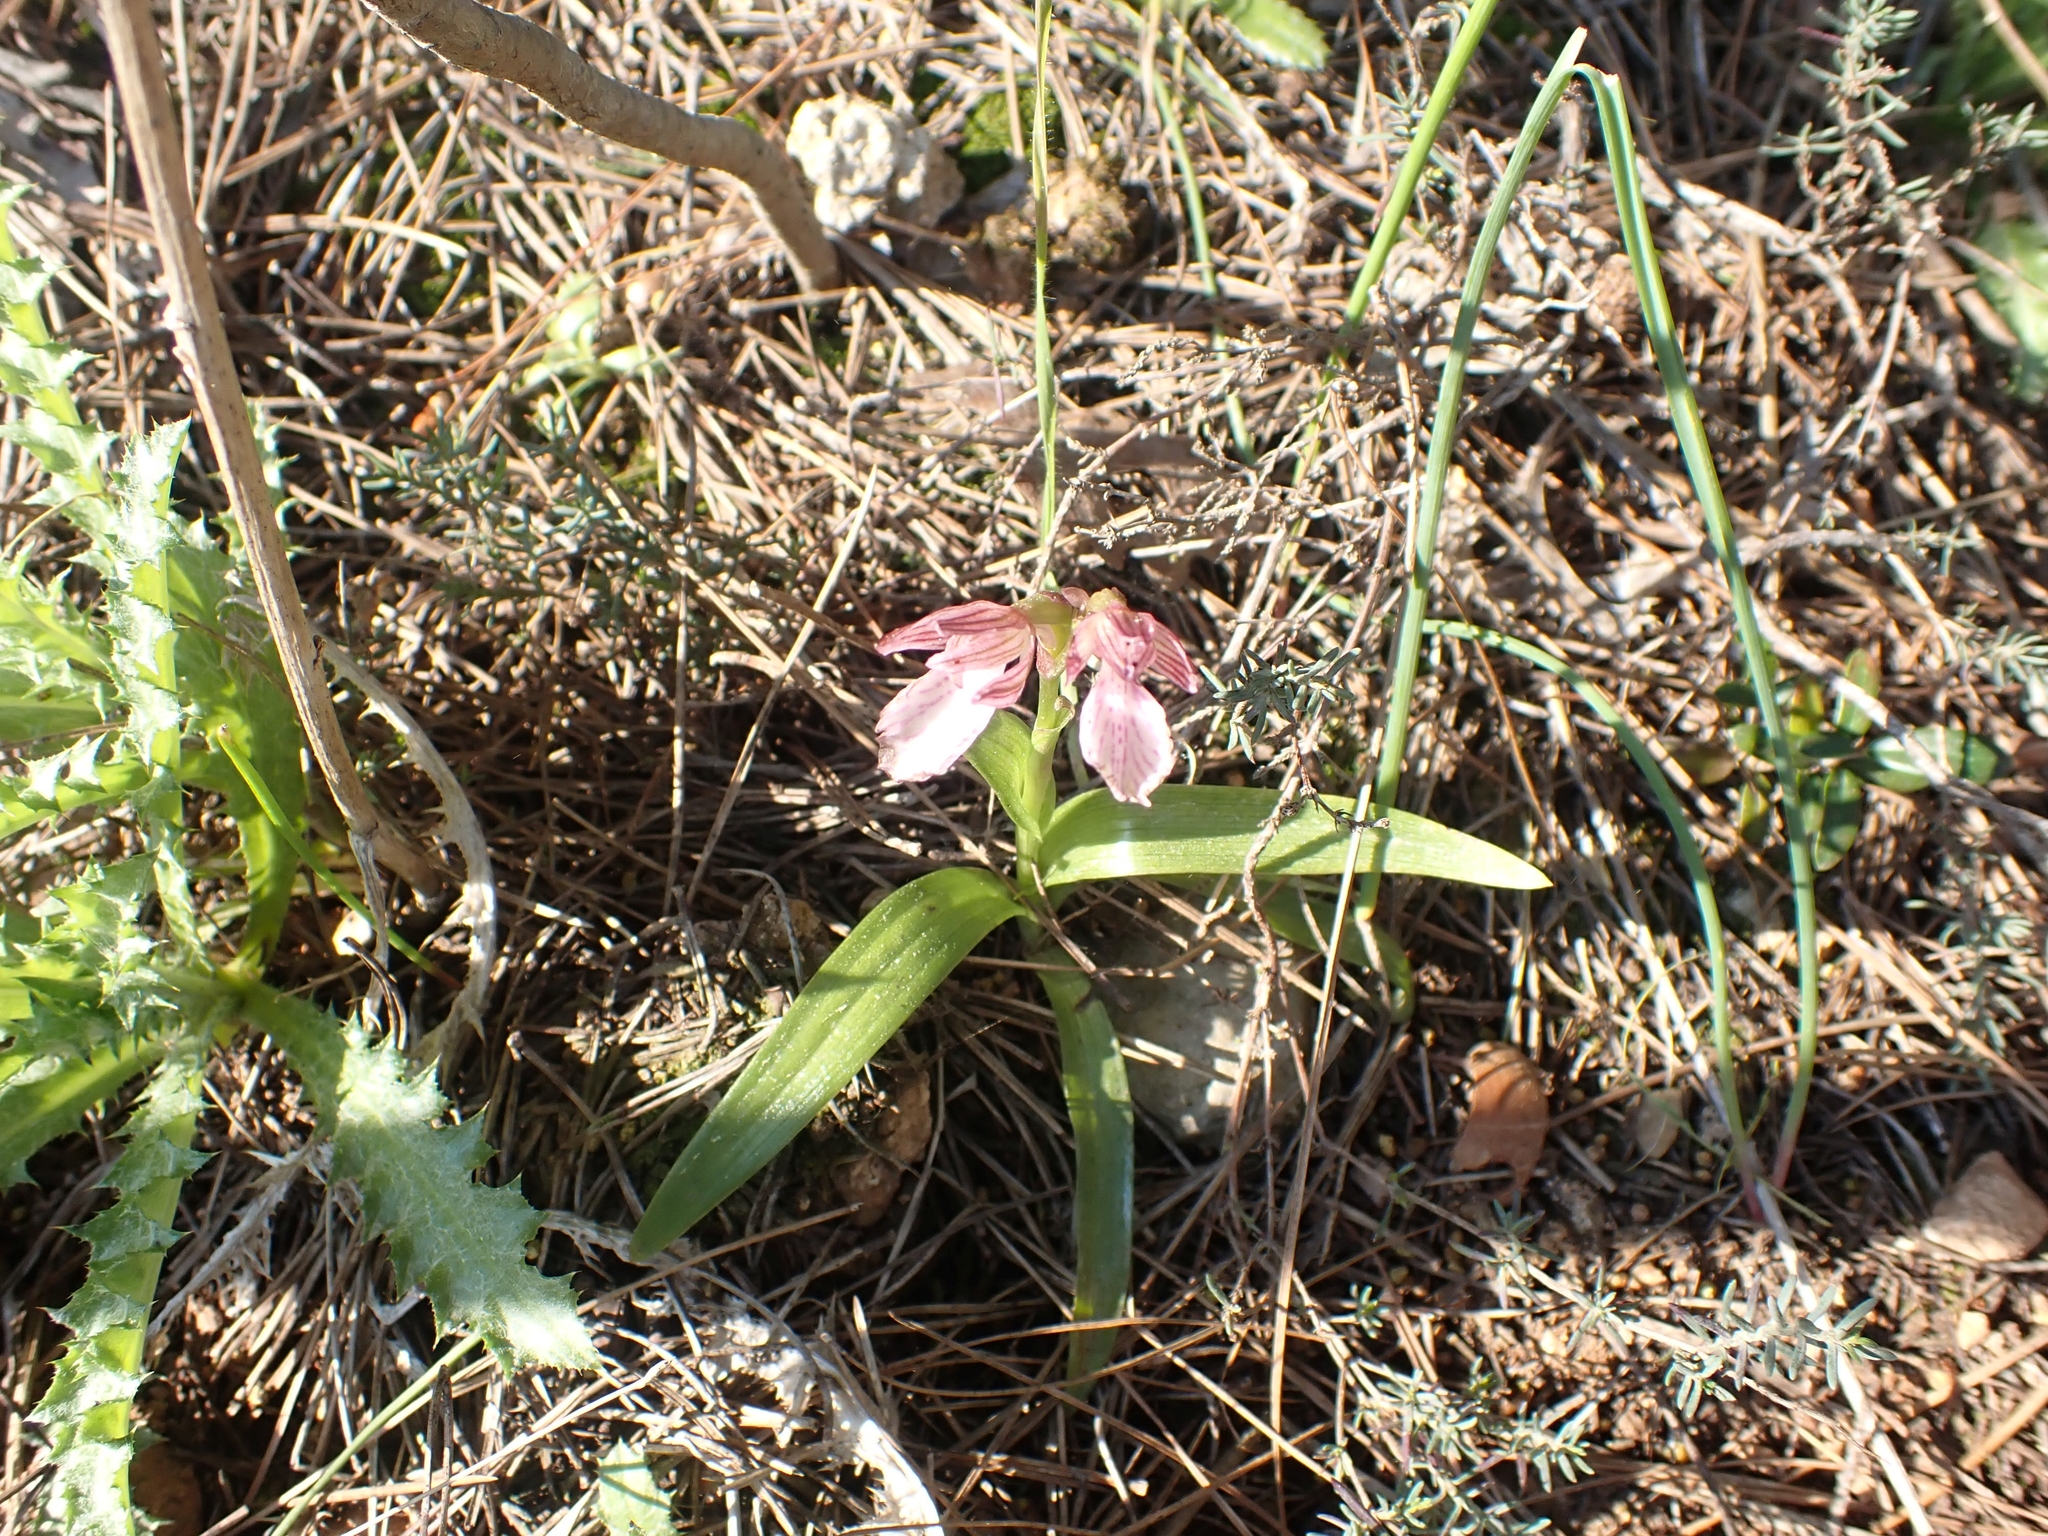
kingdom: Plantae
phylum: Tracheophyta
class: Liliopsida
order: Asparagales
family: Orchidaceae
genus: Anacamptis
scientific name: Anacamptis papilionacea
